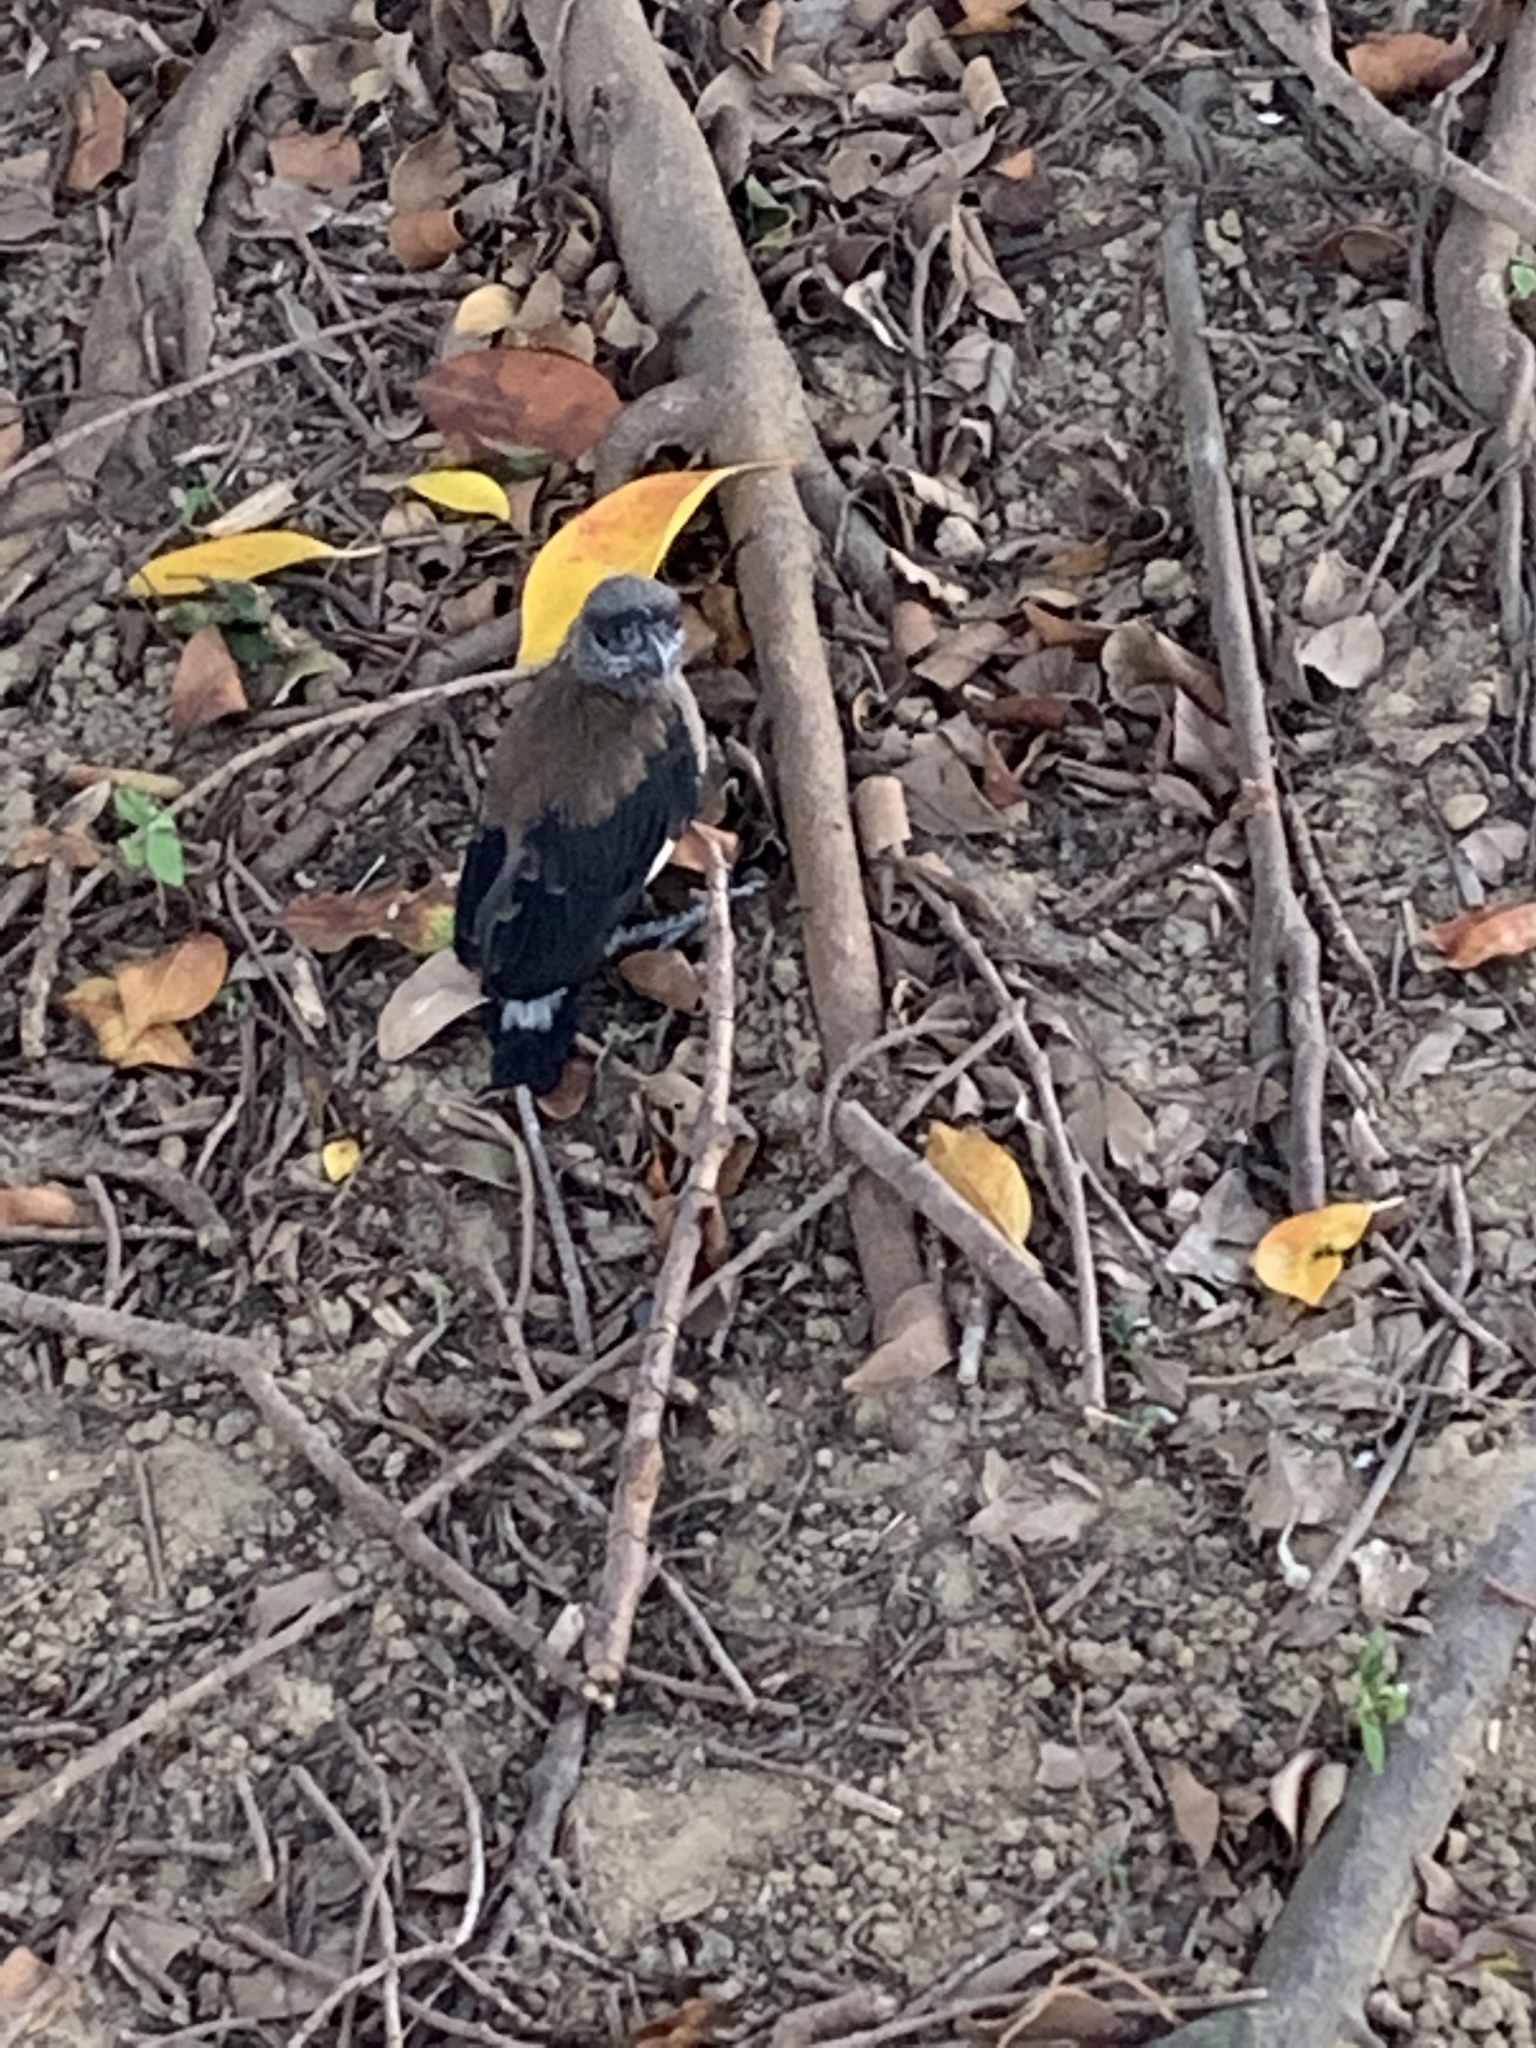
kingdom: Animalia
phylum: Chordata
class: Aves
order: Passeriformes
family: Corvidae
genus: Dendrocitta
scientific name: Dendrocitta formosae
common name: Grey treepie
